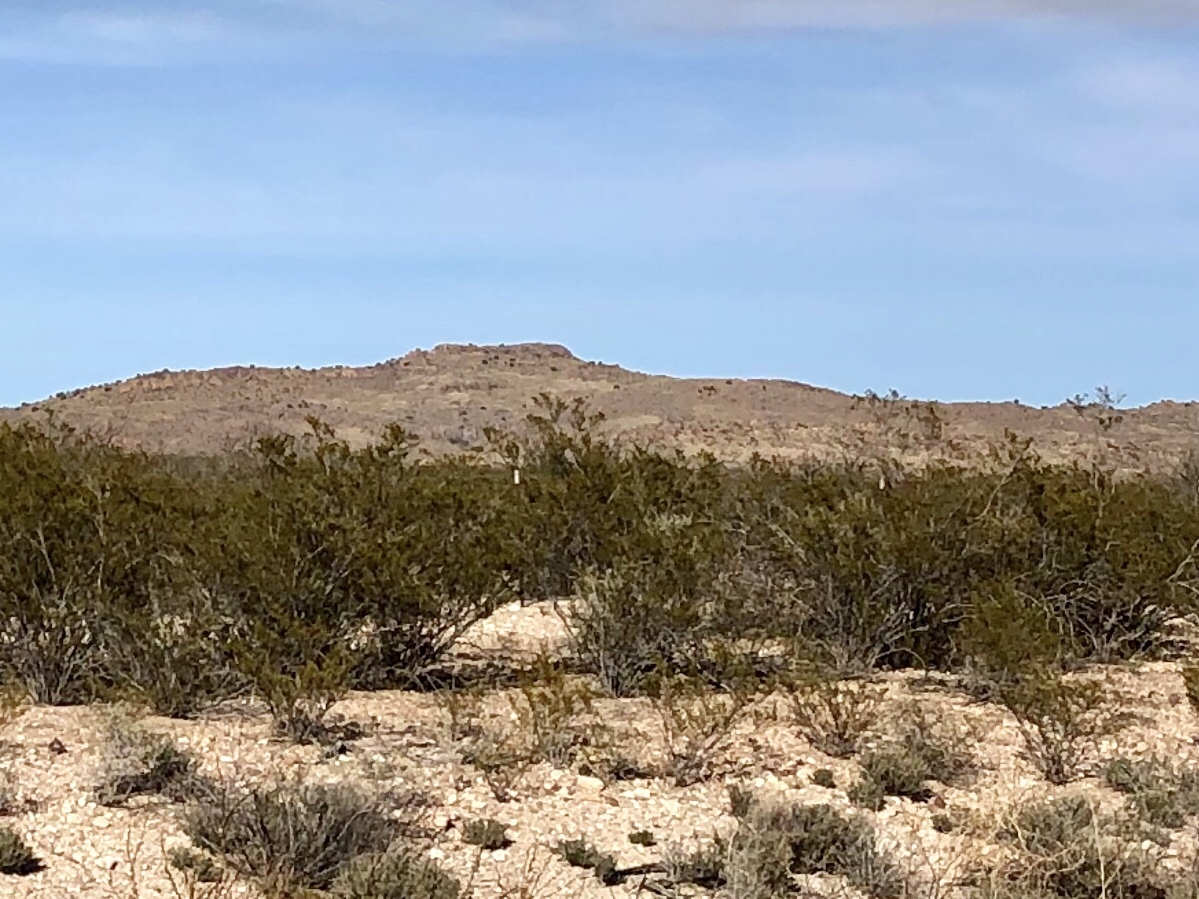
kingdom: Plantae
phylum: Tracheophyta
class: Magnoliopsida
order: Zygophyllales
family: Zygophyllaceae
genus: Larrea
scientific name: Larrea tridentata
